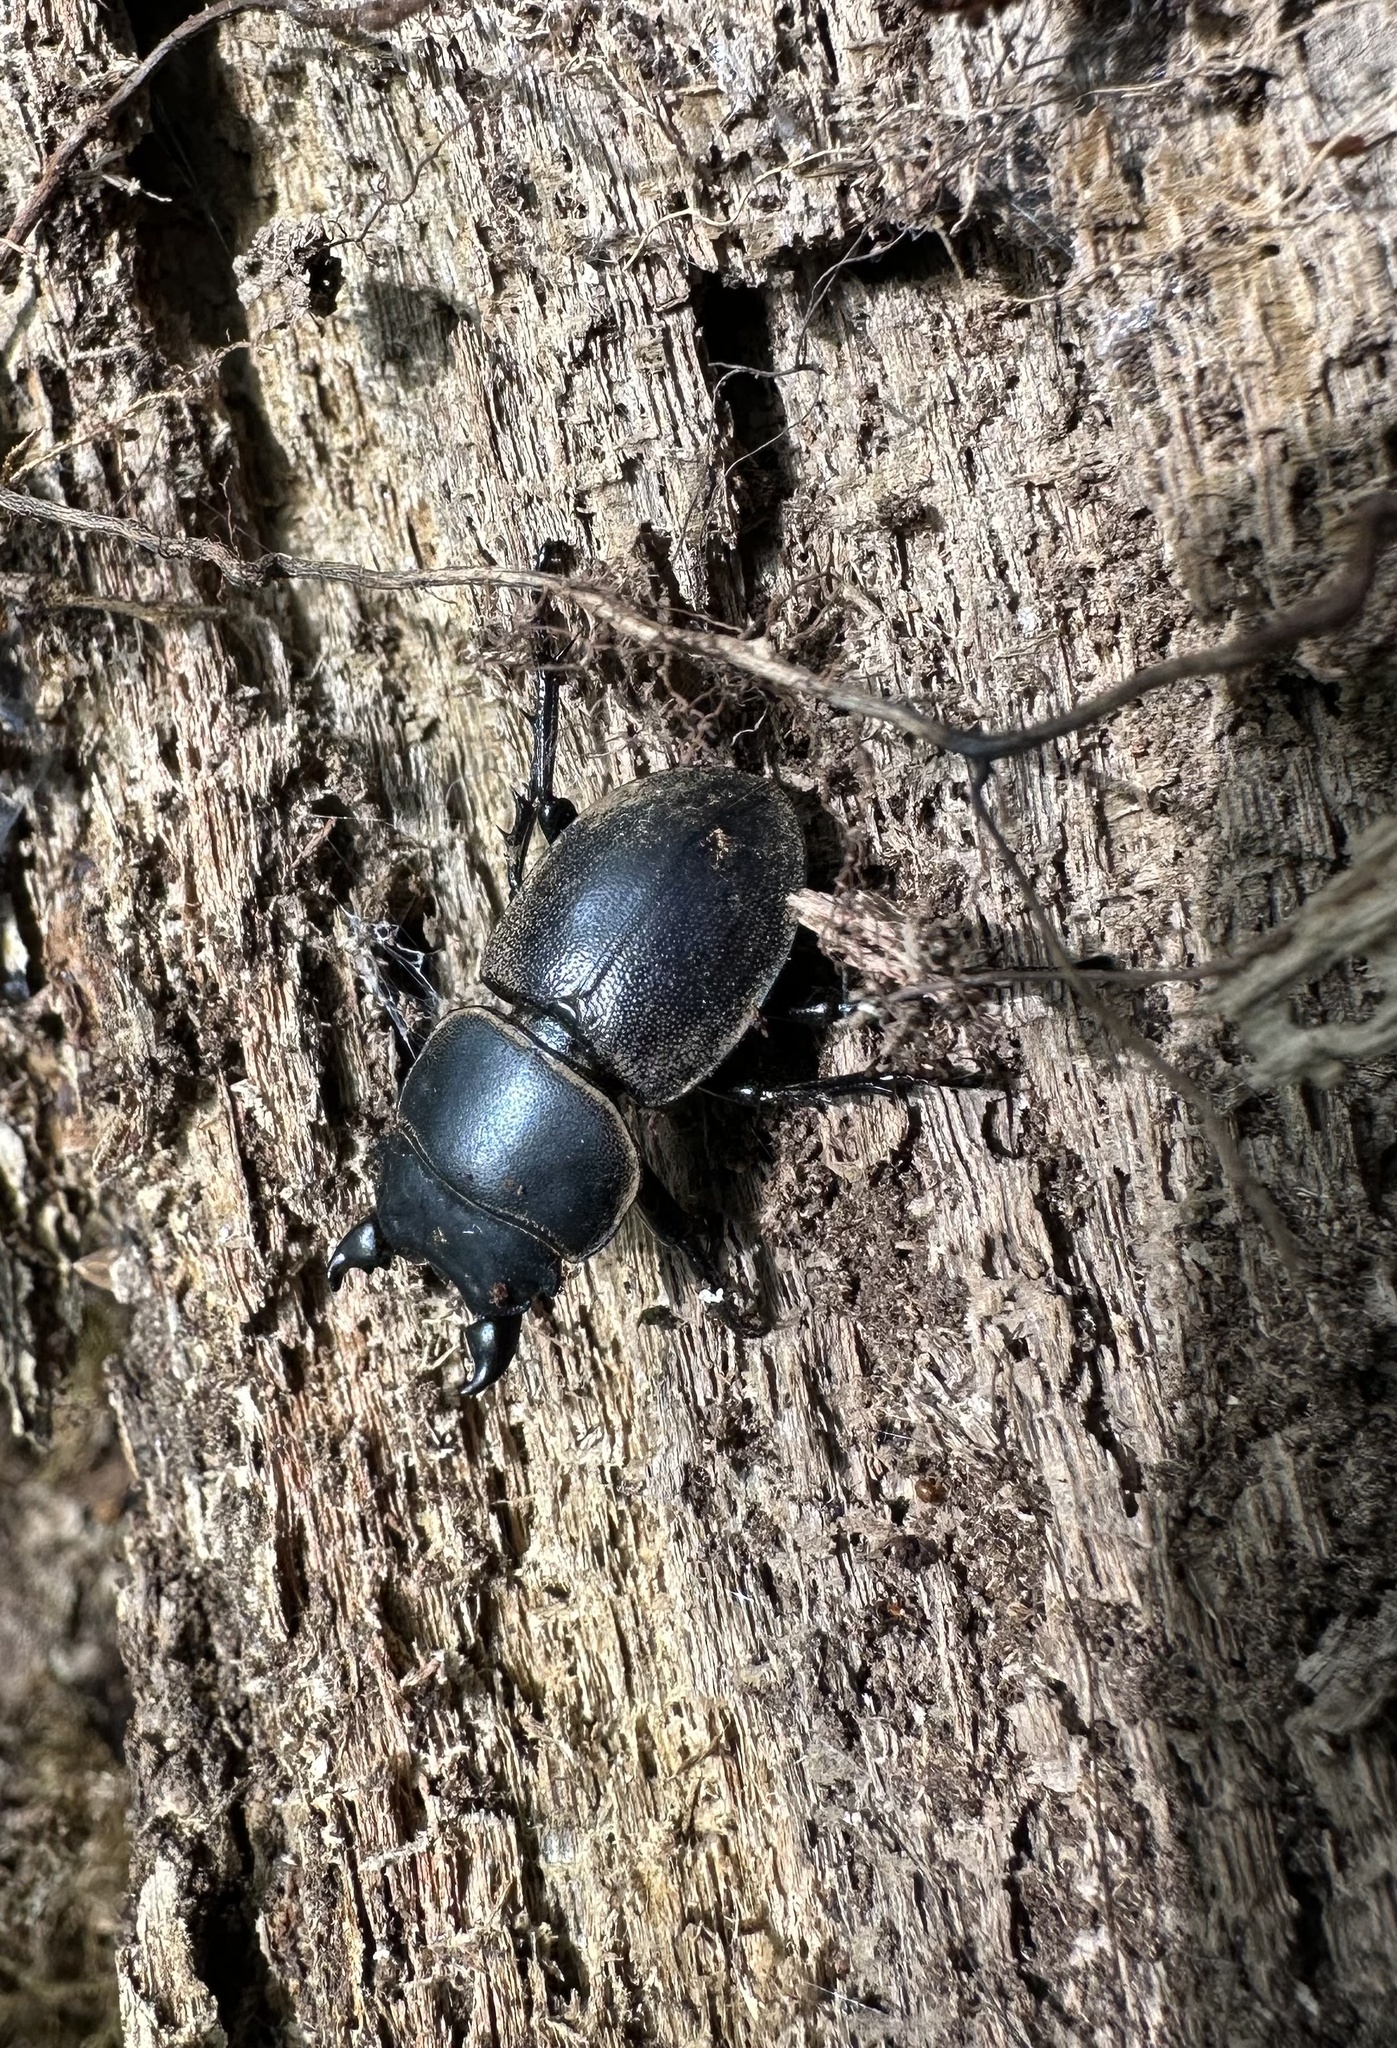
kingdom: Animalia
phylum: Arthropoda
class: Insecta
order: Coleoptera
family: Lucanidae
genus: Apterodorcus
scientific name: Apterodorcus bacchus
